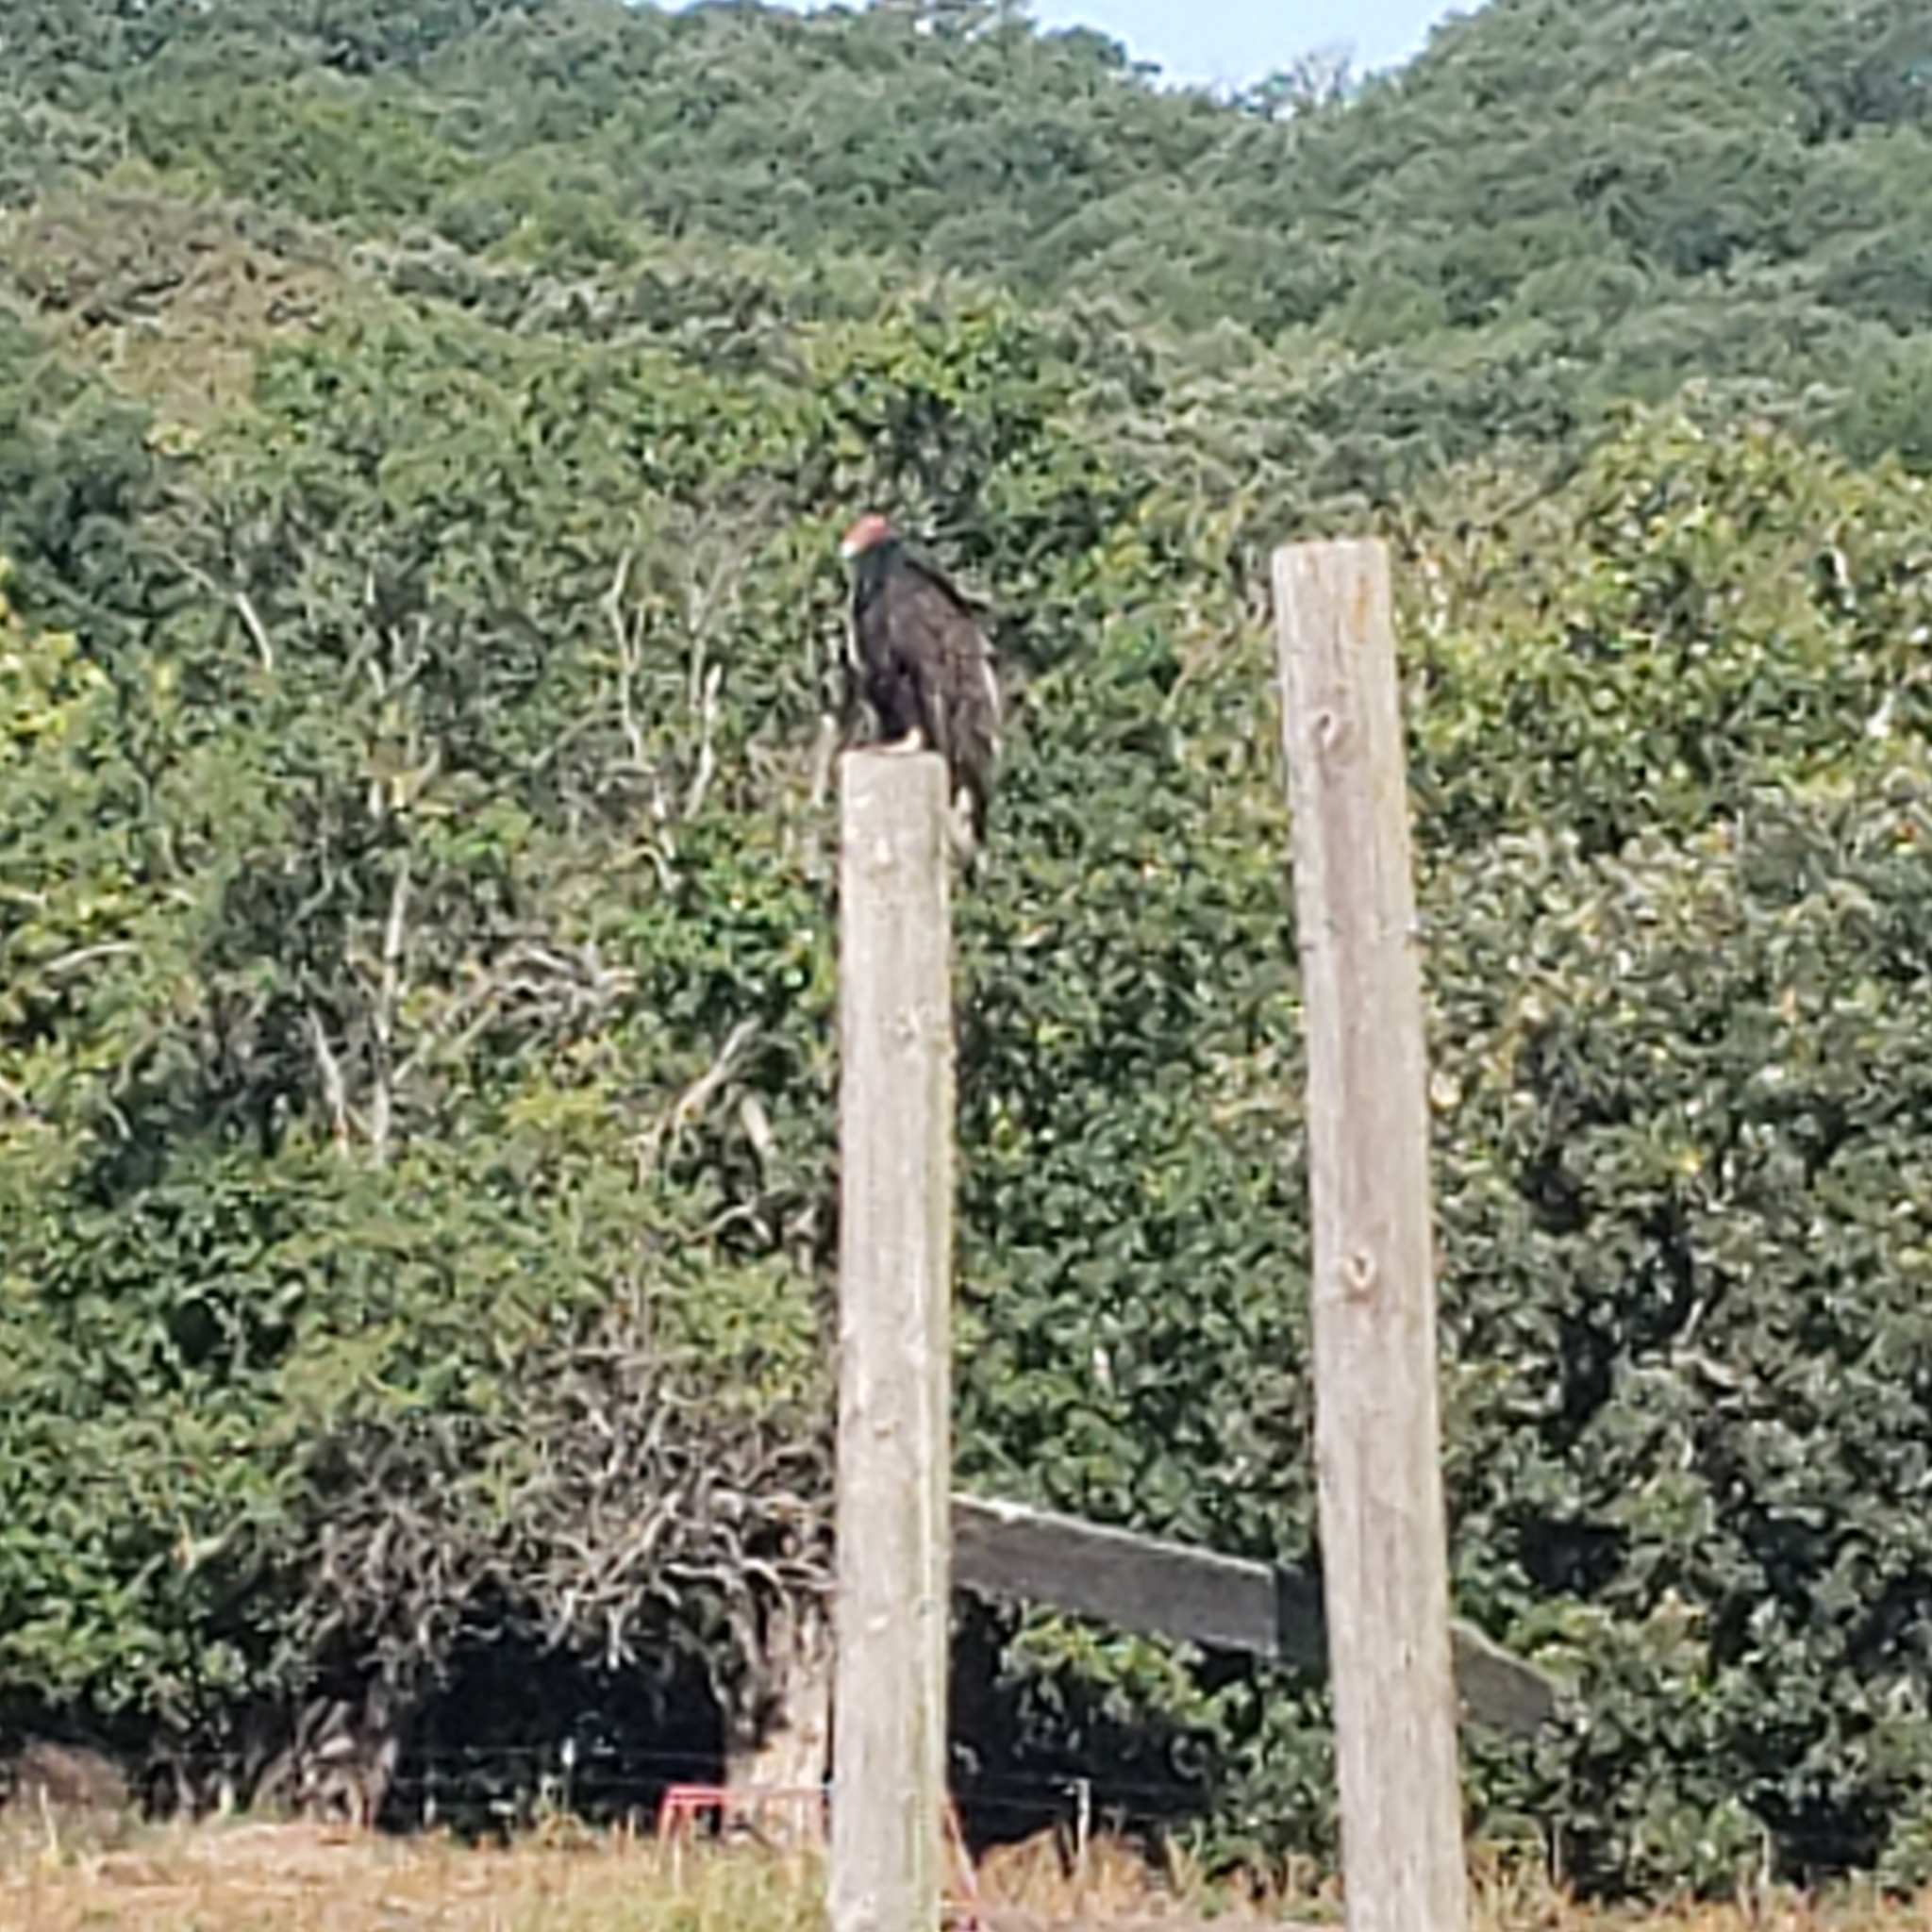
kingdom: Animalia
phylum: Chordata
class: Aves
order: Accipitriformes
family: Cathartidae
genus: Cathartes
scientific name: Cathartes aura
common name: Turkey vulture
